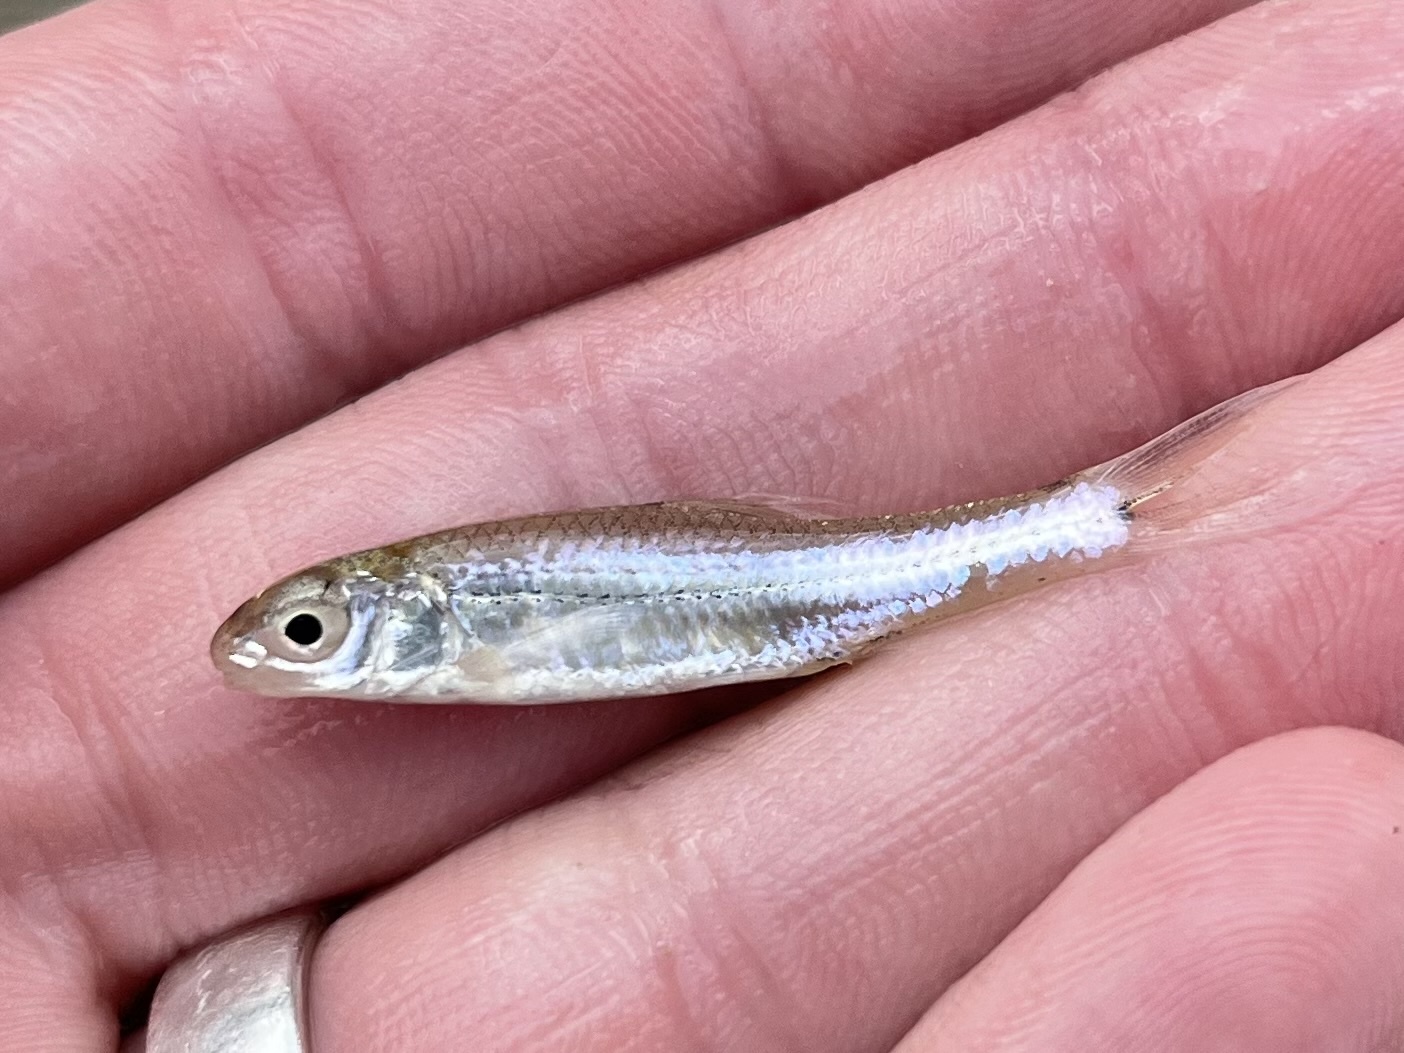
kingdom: Animalia
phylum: Chordata
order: Cypriniformes
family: Cyprinidae
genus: Notropis
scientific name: Notropis
